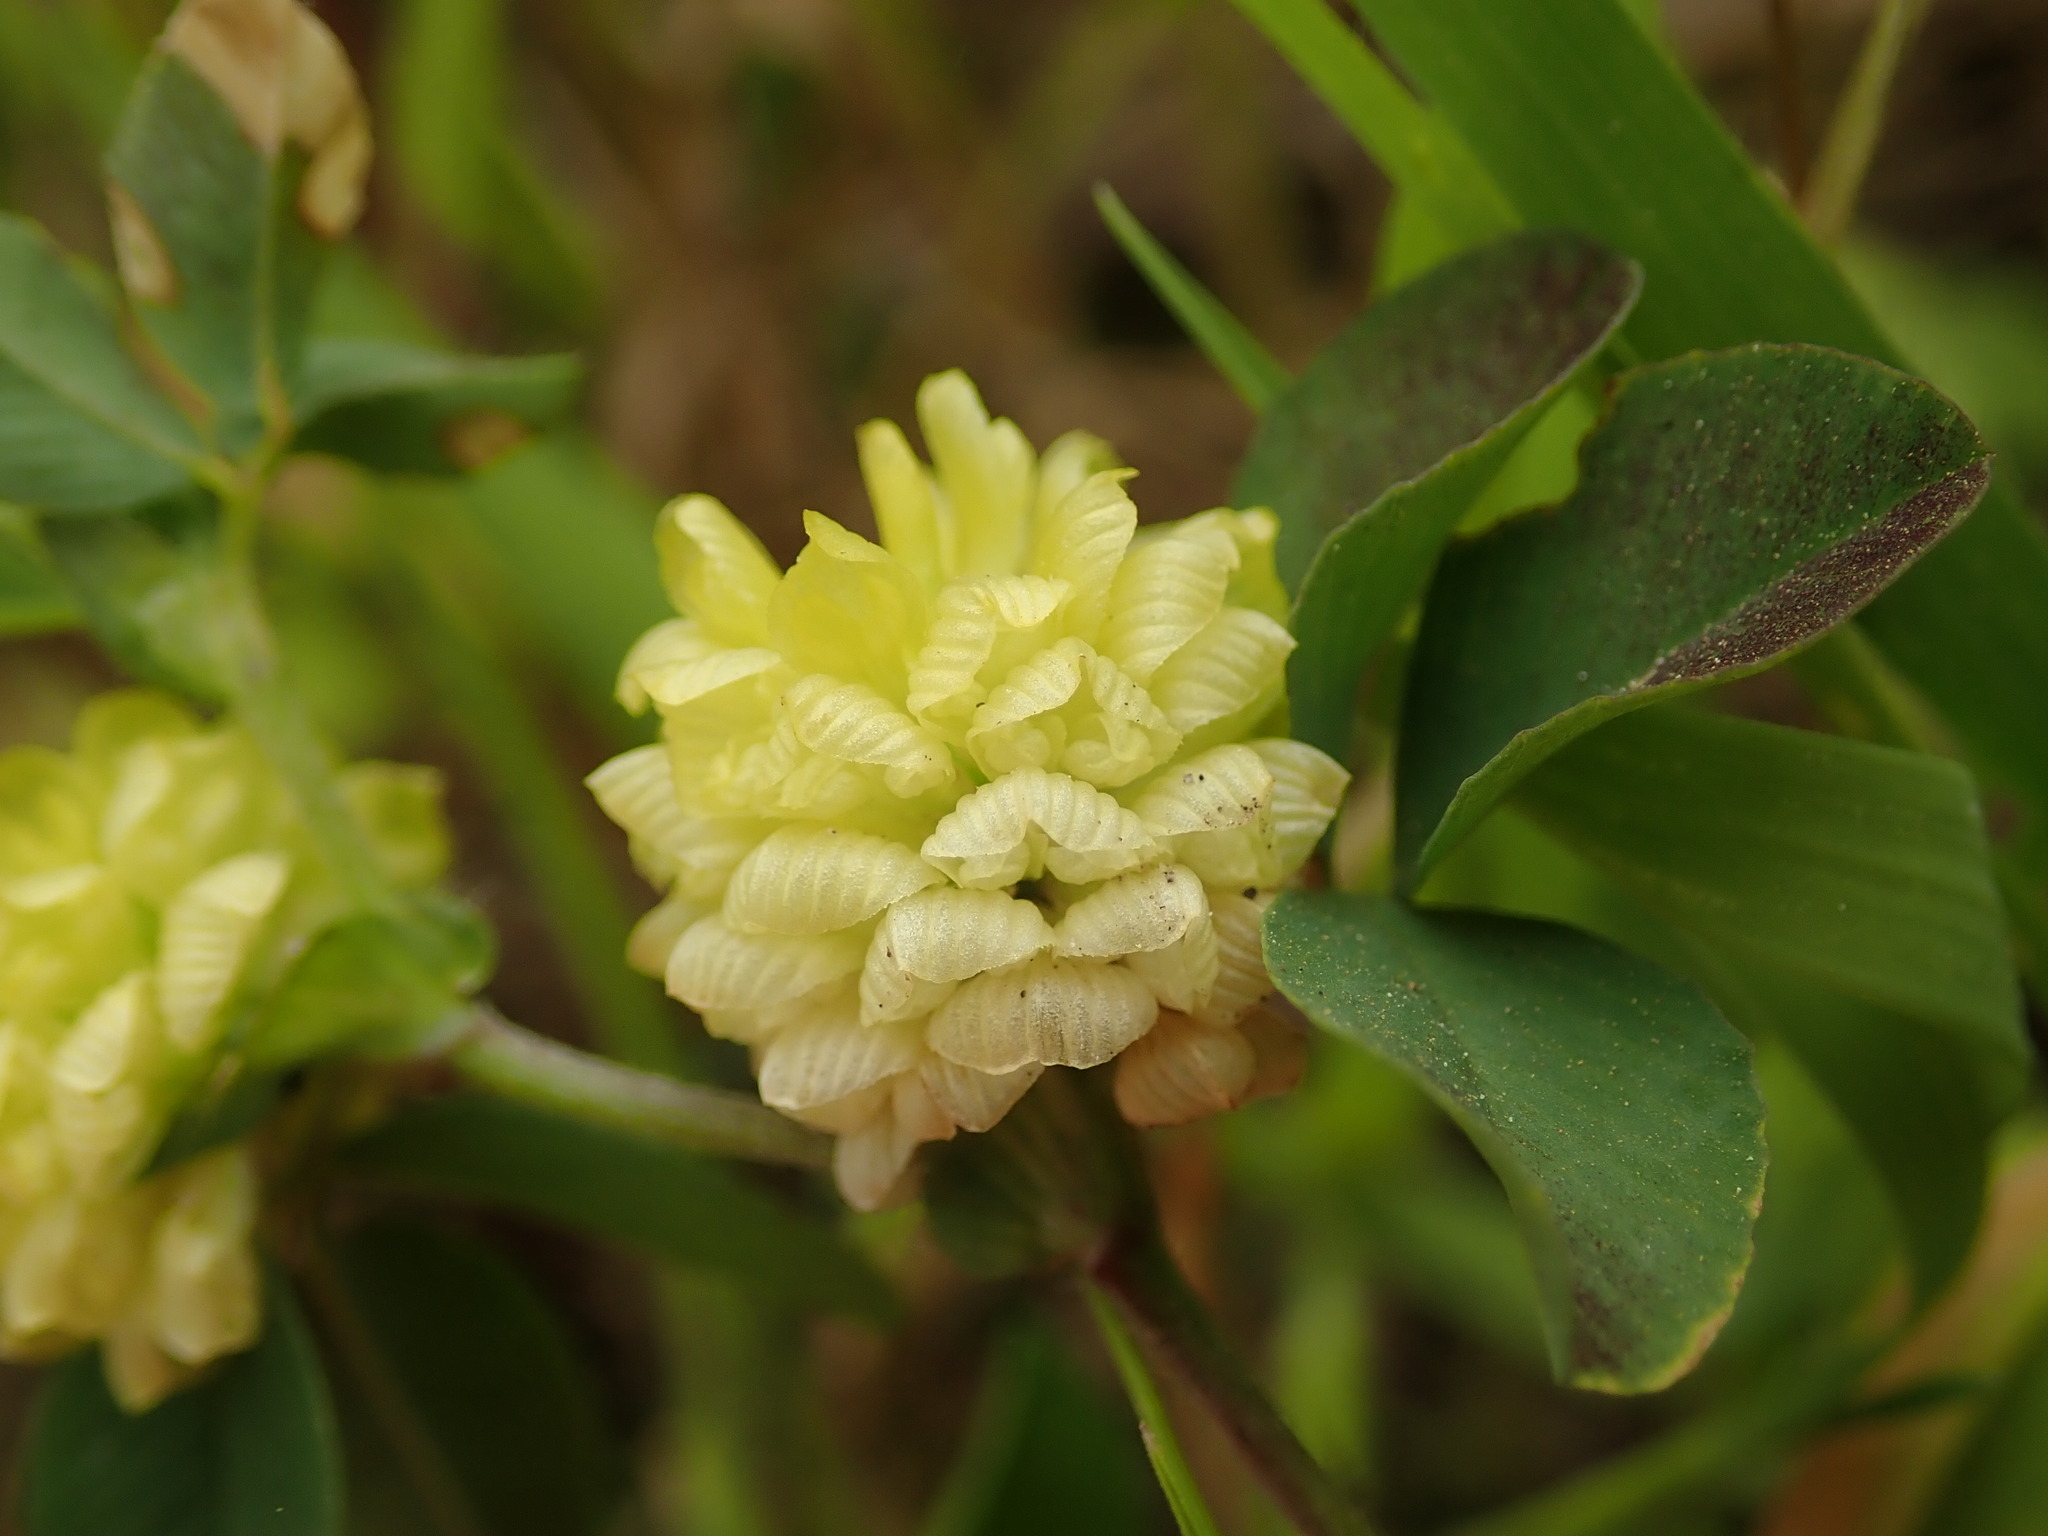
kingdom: Plantae
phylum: Tracheophyta
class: Magnoliopsida
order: Fabales
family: Fabaceae
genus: Trifolium
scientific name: Trifolium campestre
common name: Field clover
